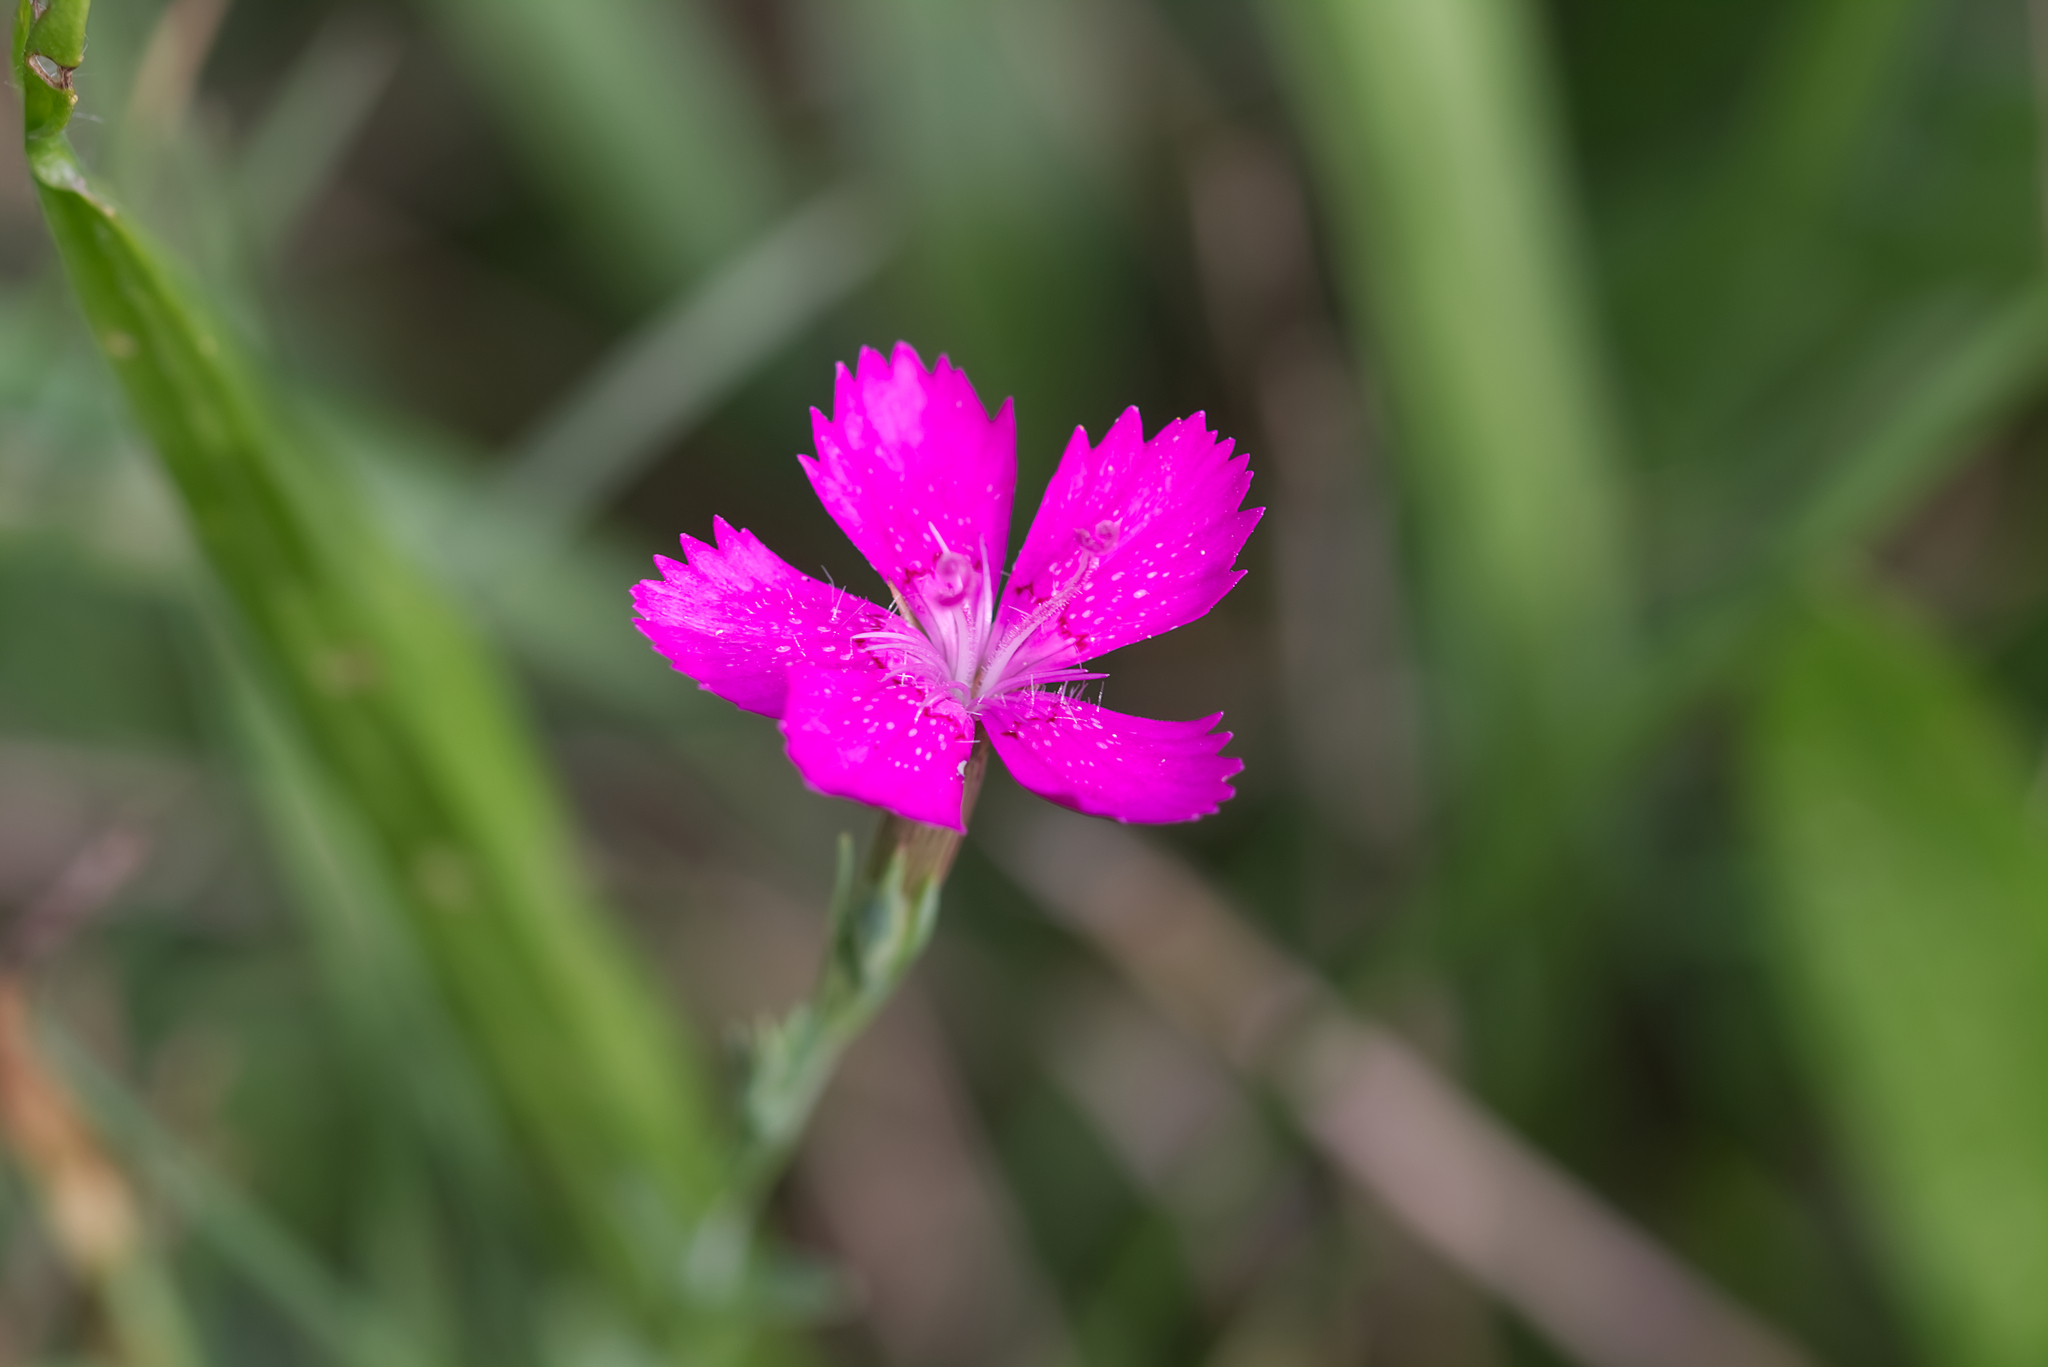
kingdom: Plantae
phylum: Tracheophyta
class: Magnoliopsida
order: Caryophyllales
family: Caryophyllaceae
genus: Dianthus
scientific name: Dianthus deltoides
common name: Maiden pink
